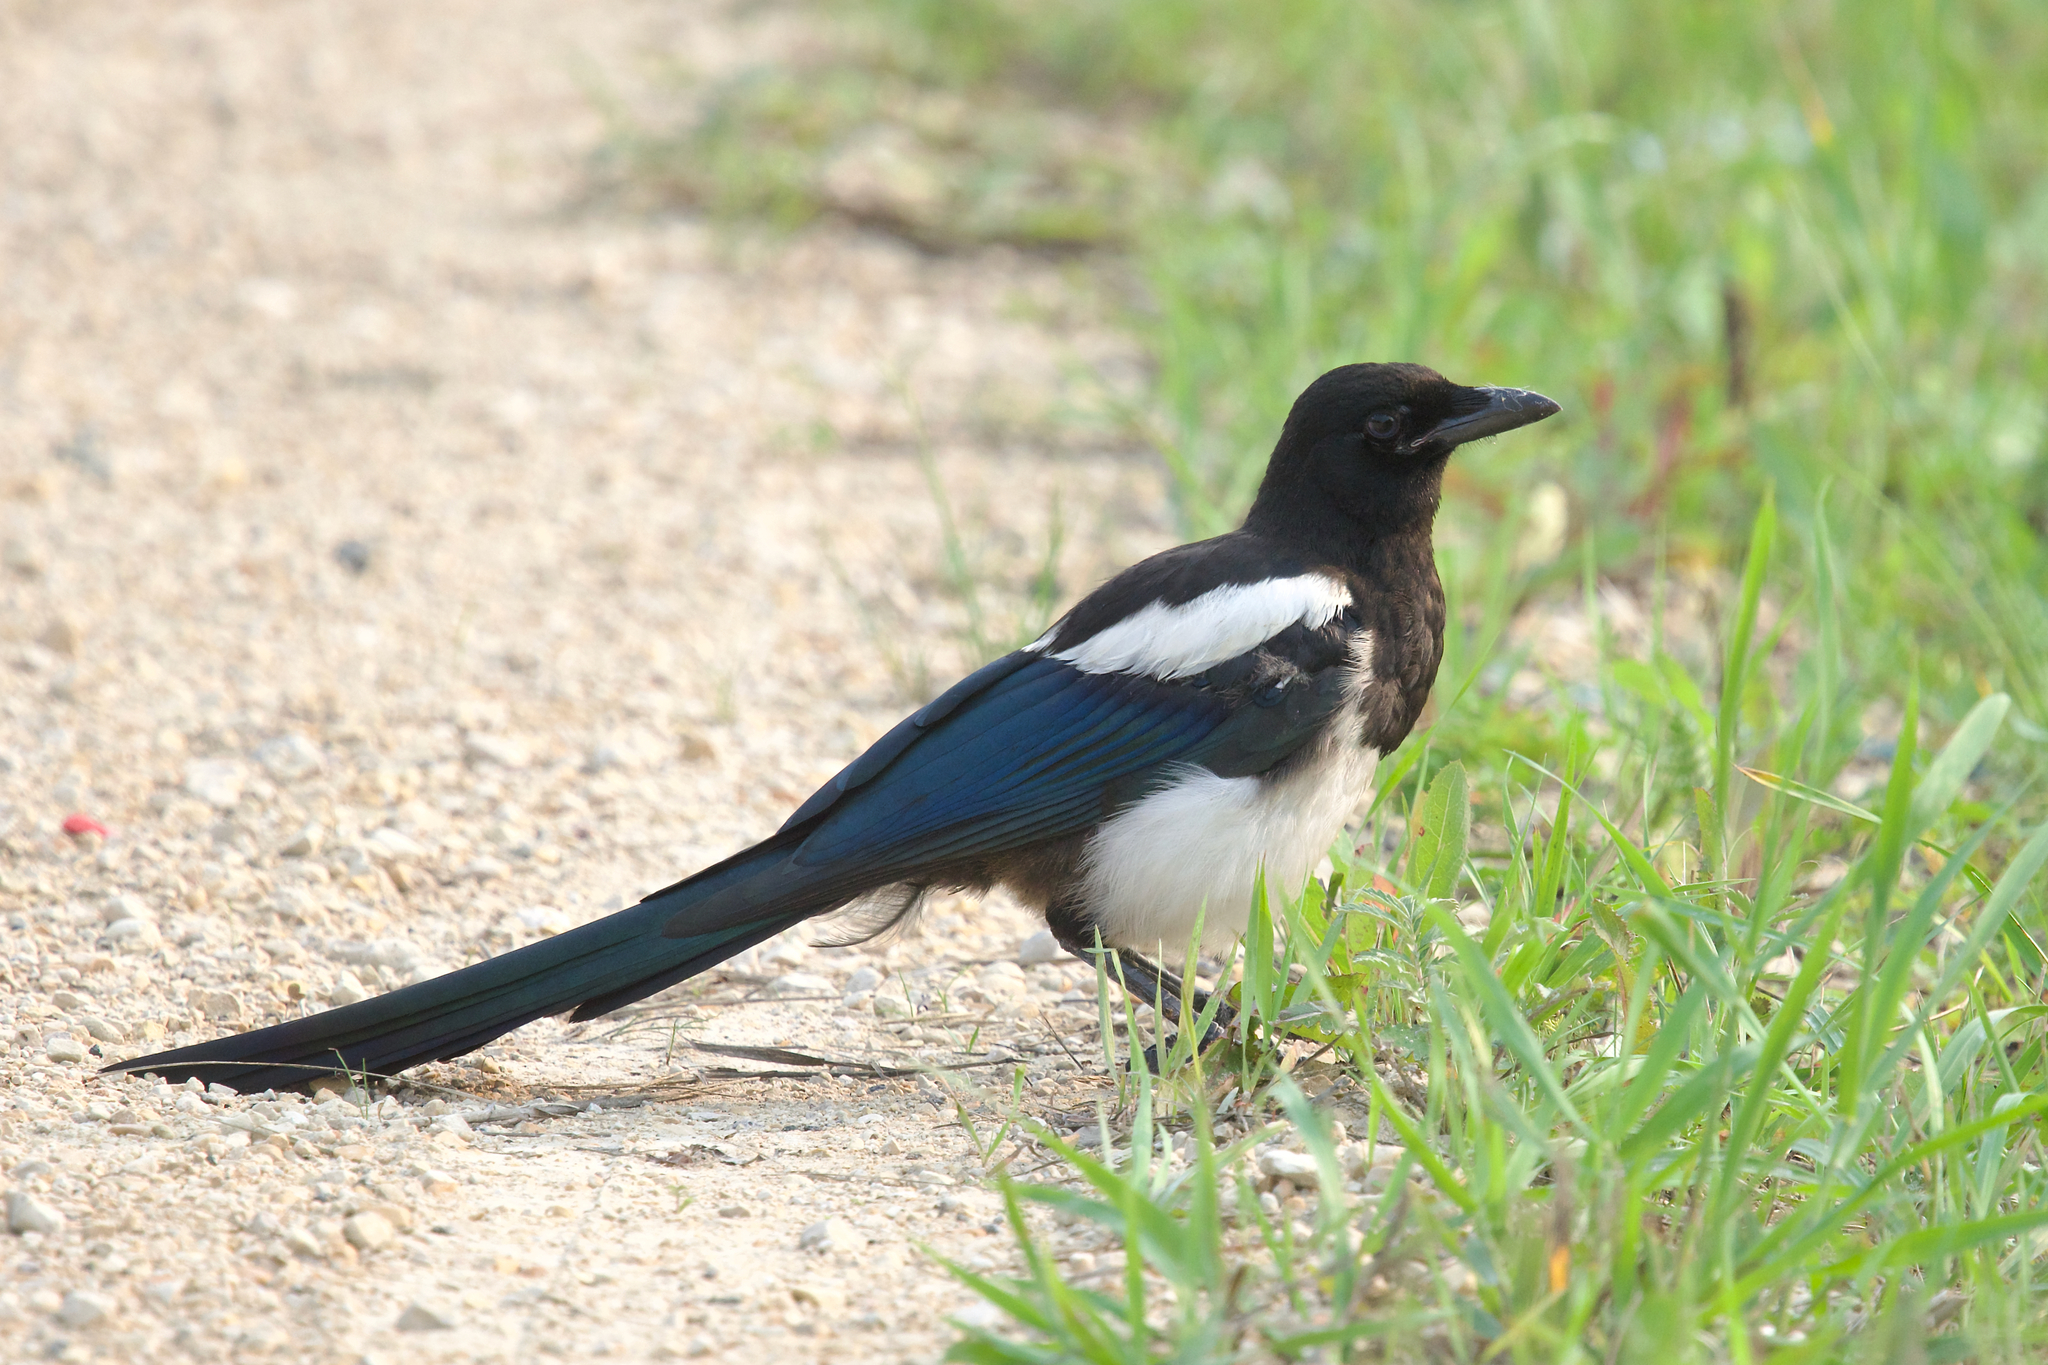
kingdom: Animalia
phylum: Chordata
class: Aves
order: Passeriformes
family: Corvidae
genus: Pica
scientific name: Pica hudsonia
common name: Black-billed magpie
